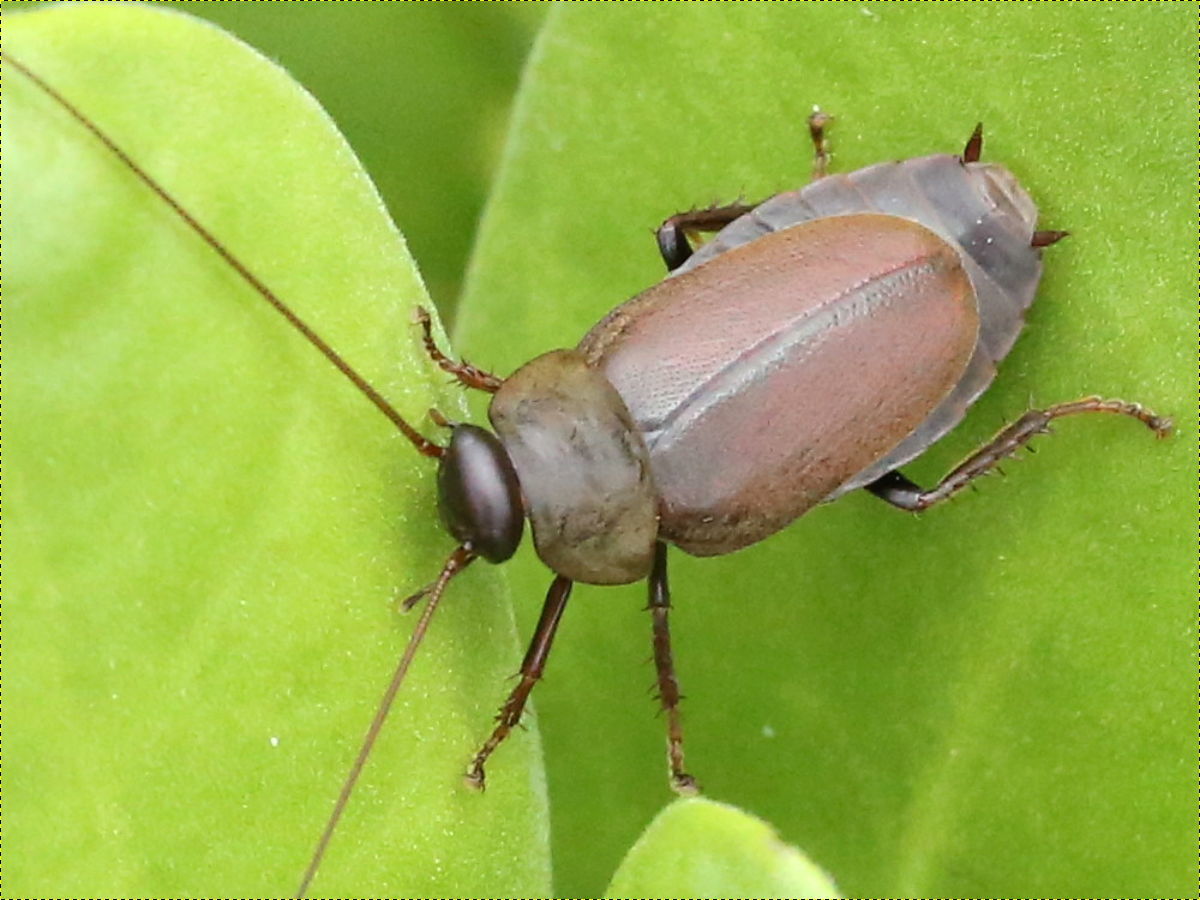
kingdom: Animalia
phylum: Arthropoda
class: Insecta
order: Blattodea
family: Blaberidae
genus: Diploptera
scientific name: Diploptera punctata
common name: Pacific beetle cockroach
